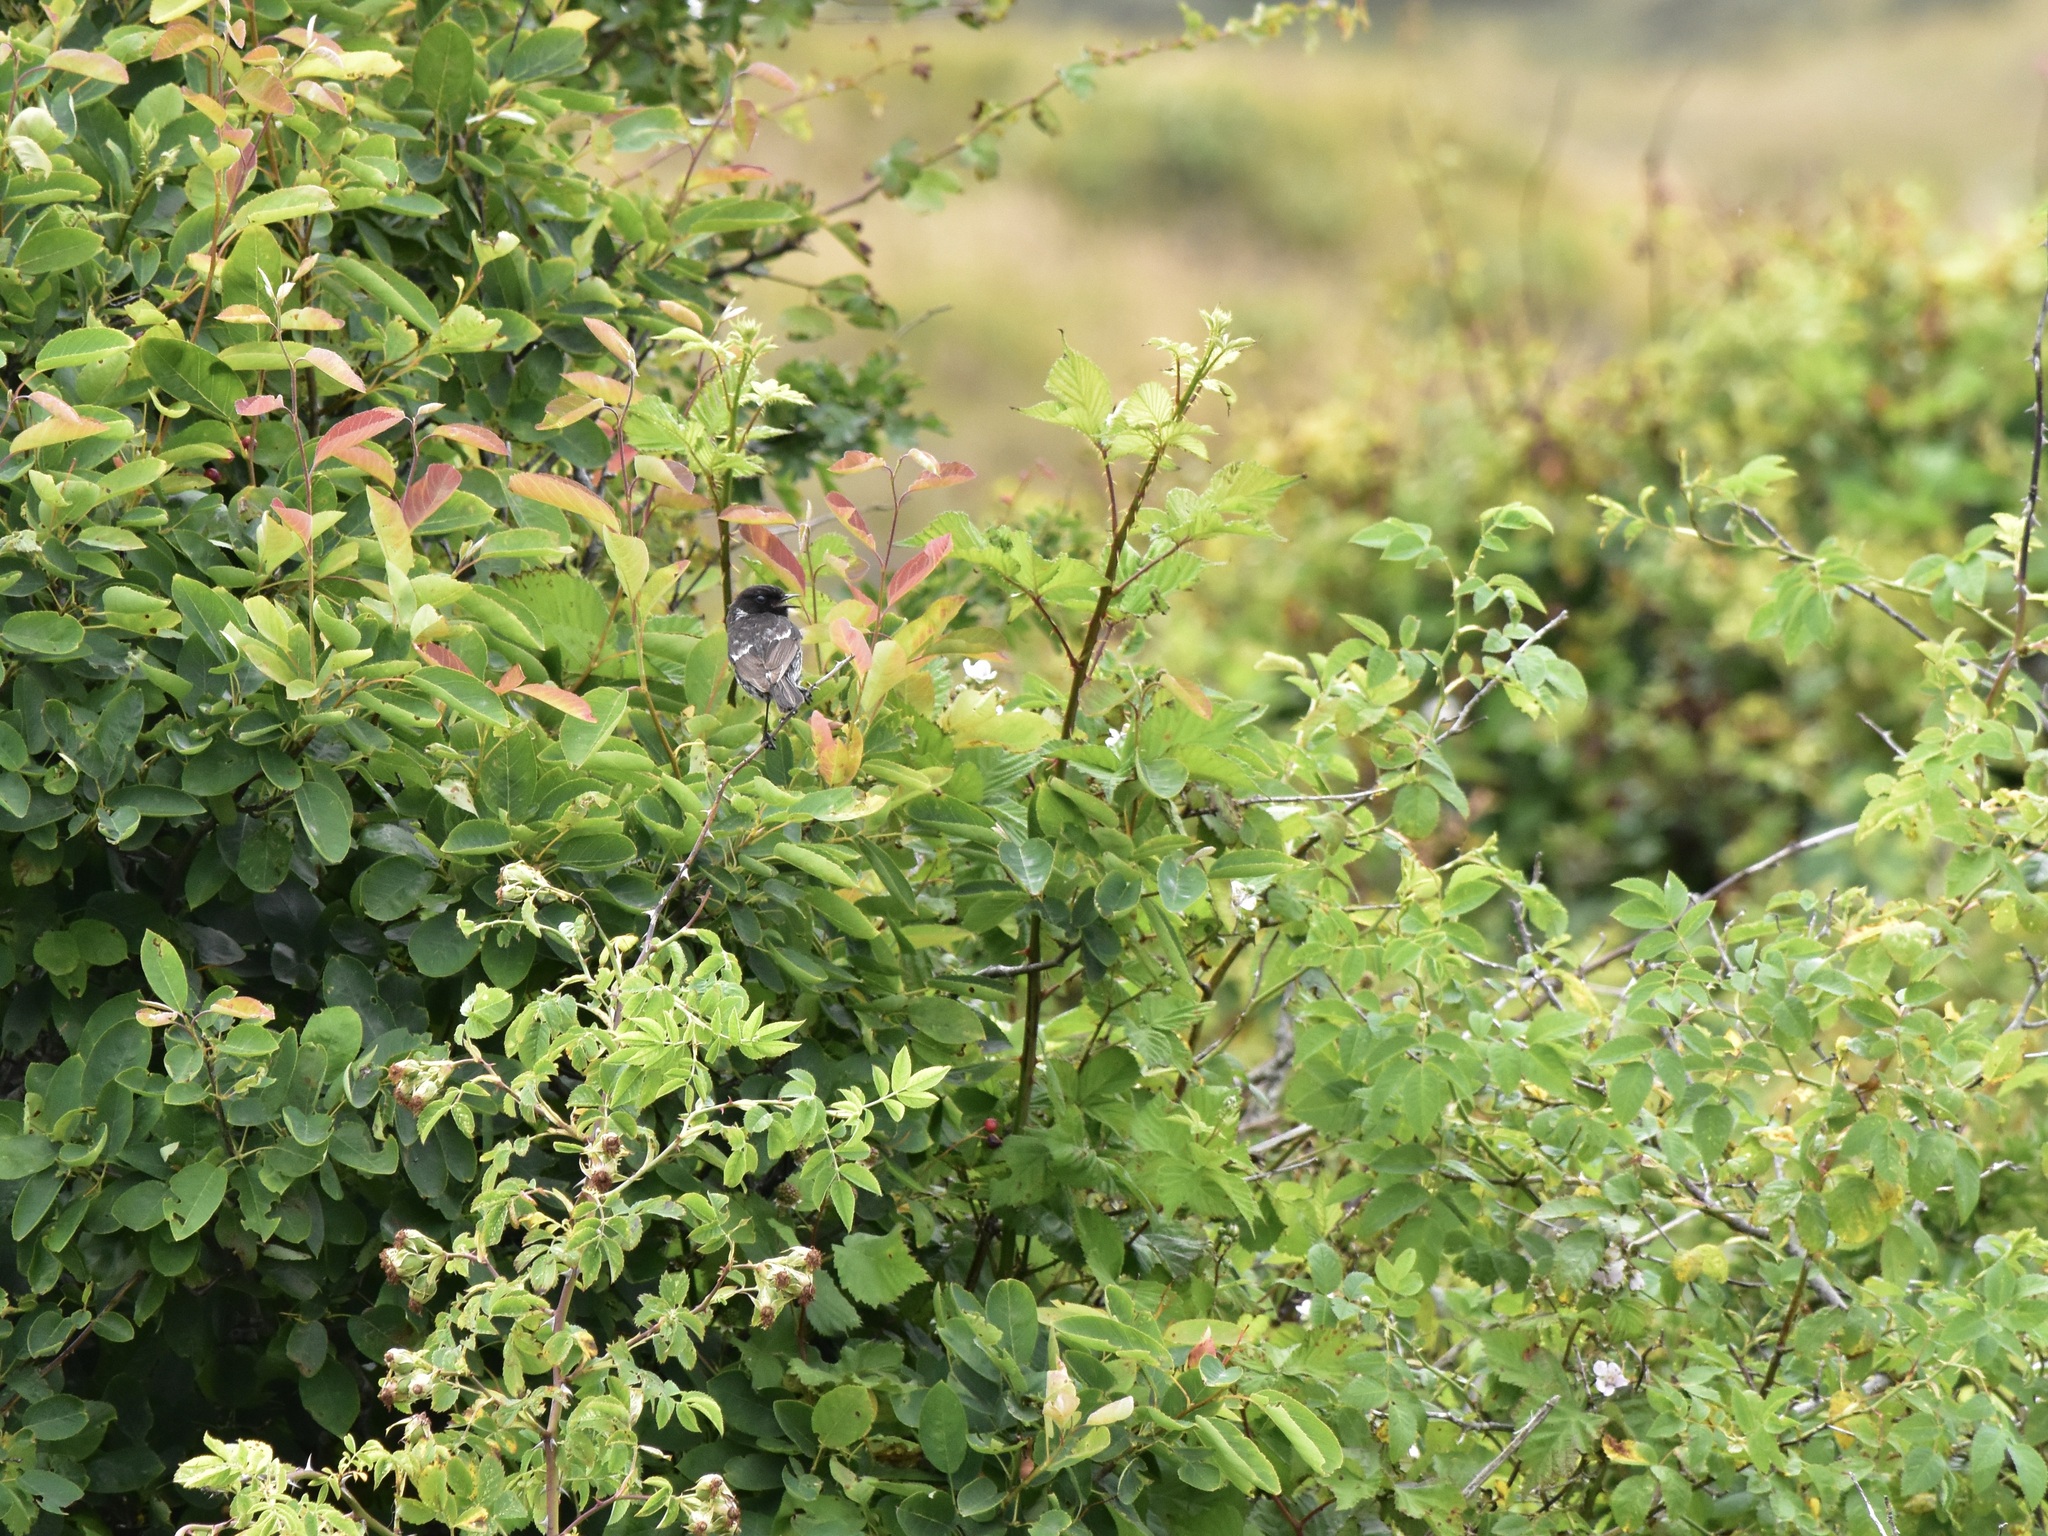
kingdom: Animalia
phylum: Chordata
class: Aves
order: Passeriformes
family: Muscicapidae
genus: Saxicola
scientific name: Saxicola rubicola
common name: European stonechat
